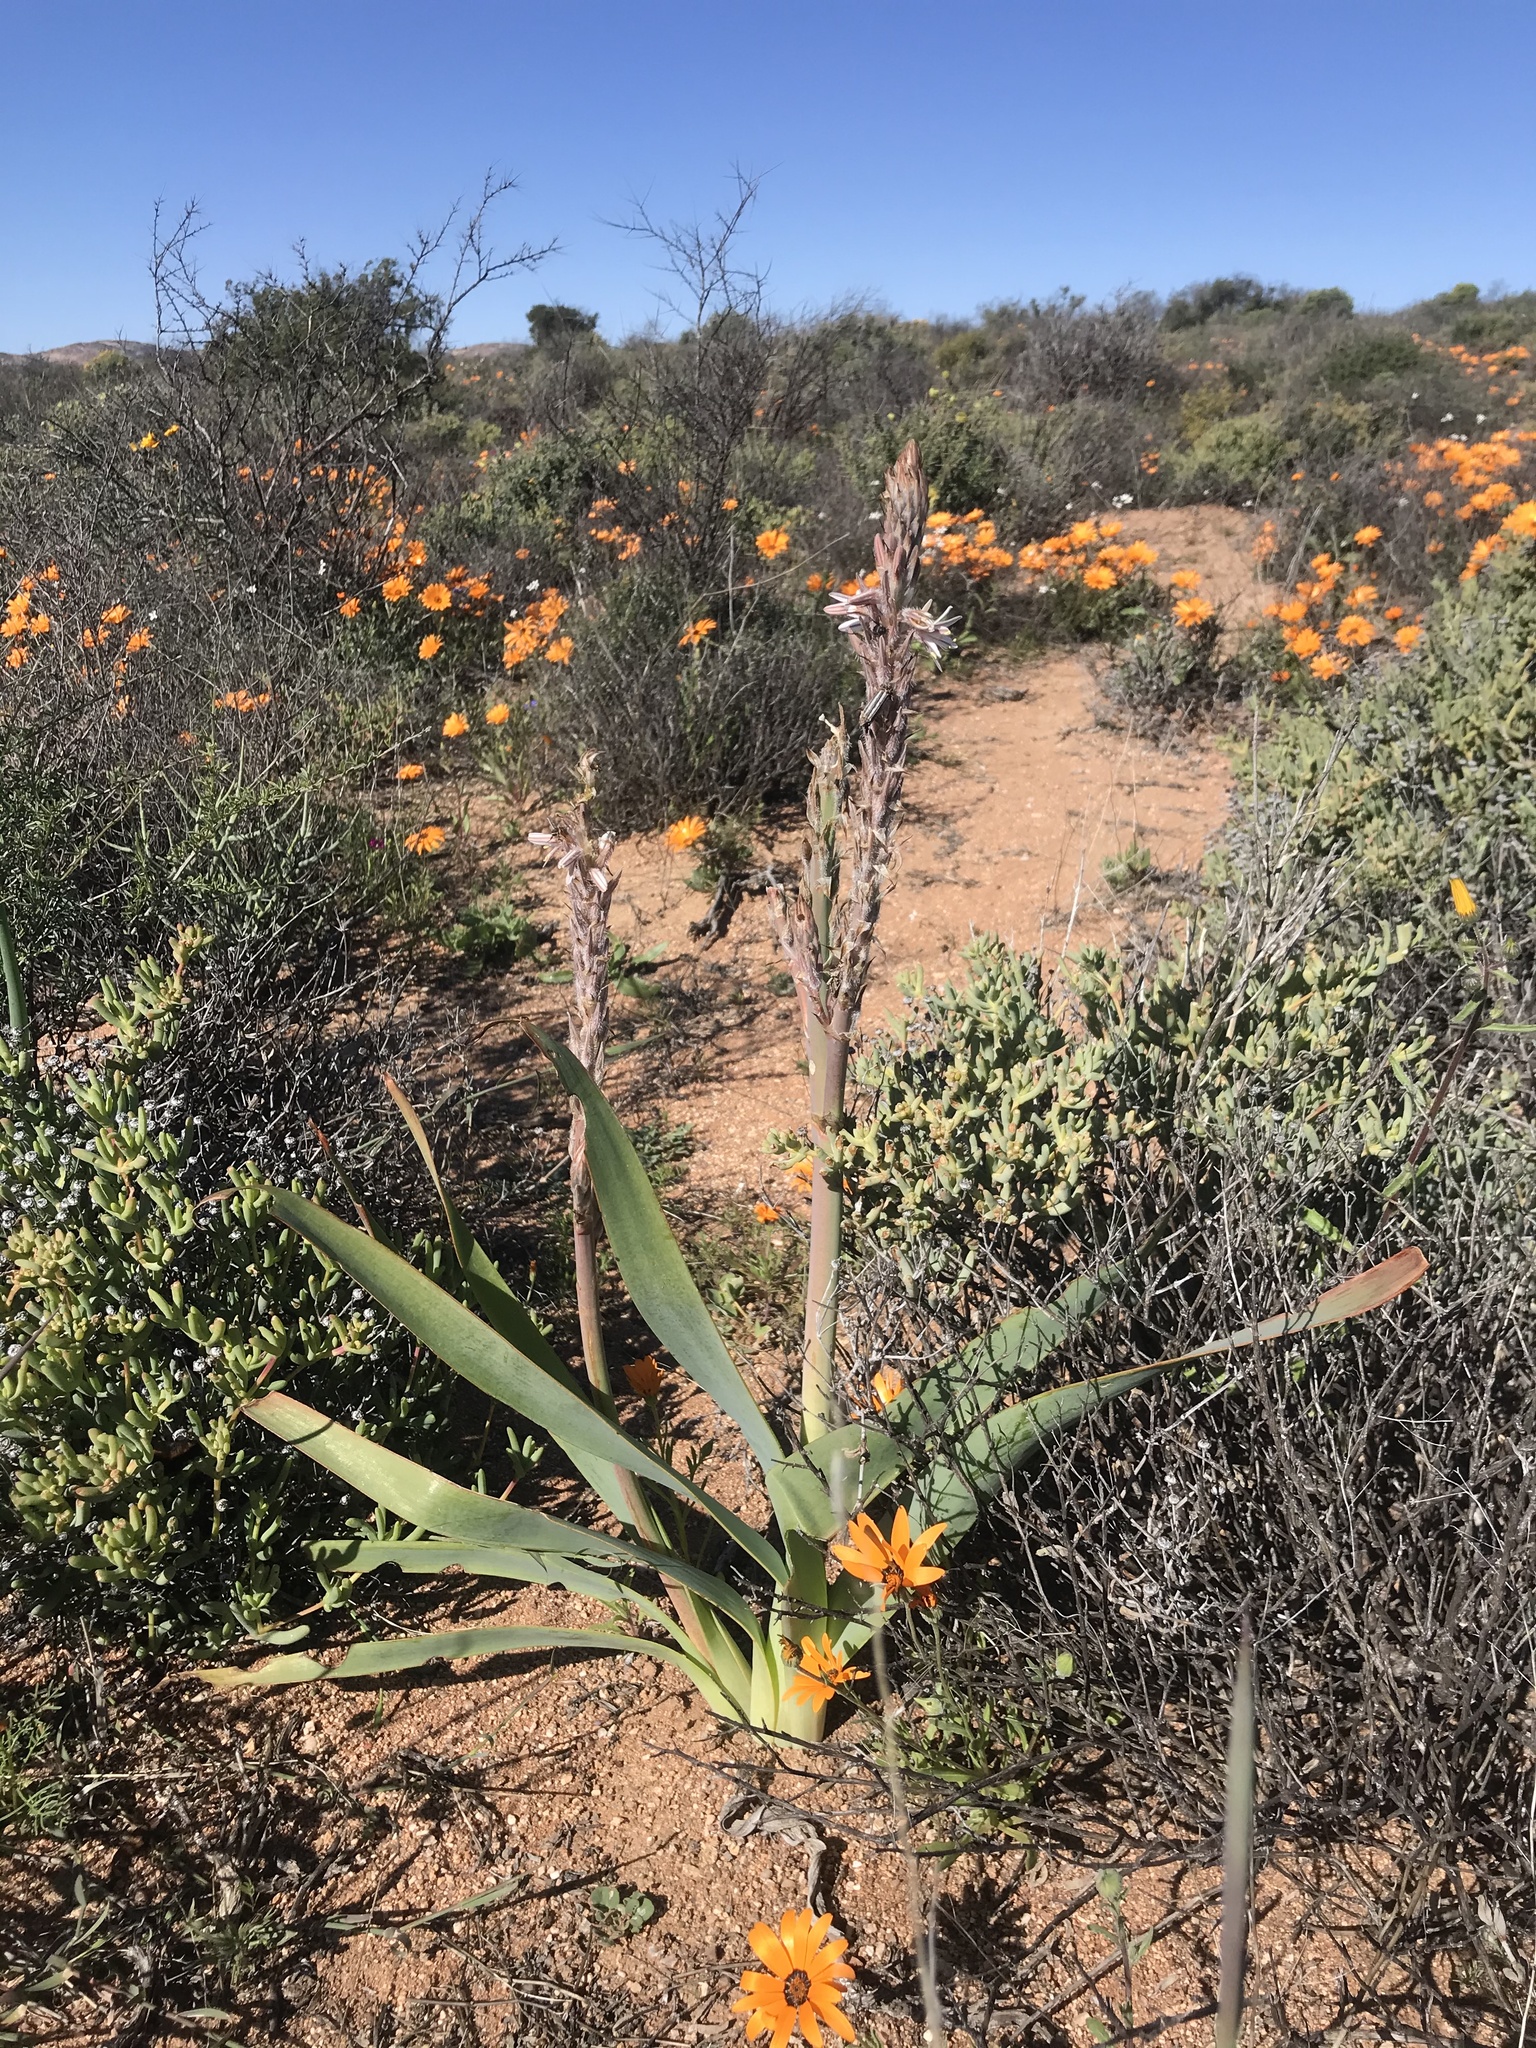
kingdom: Plantae
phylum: Tracheophyta
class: Liliopsida
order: Asparagales
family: Asphodelaceae
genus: Trachyandra
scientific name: Trachyandra falcata
